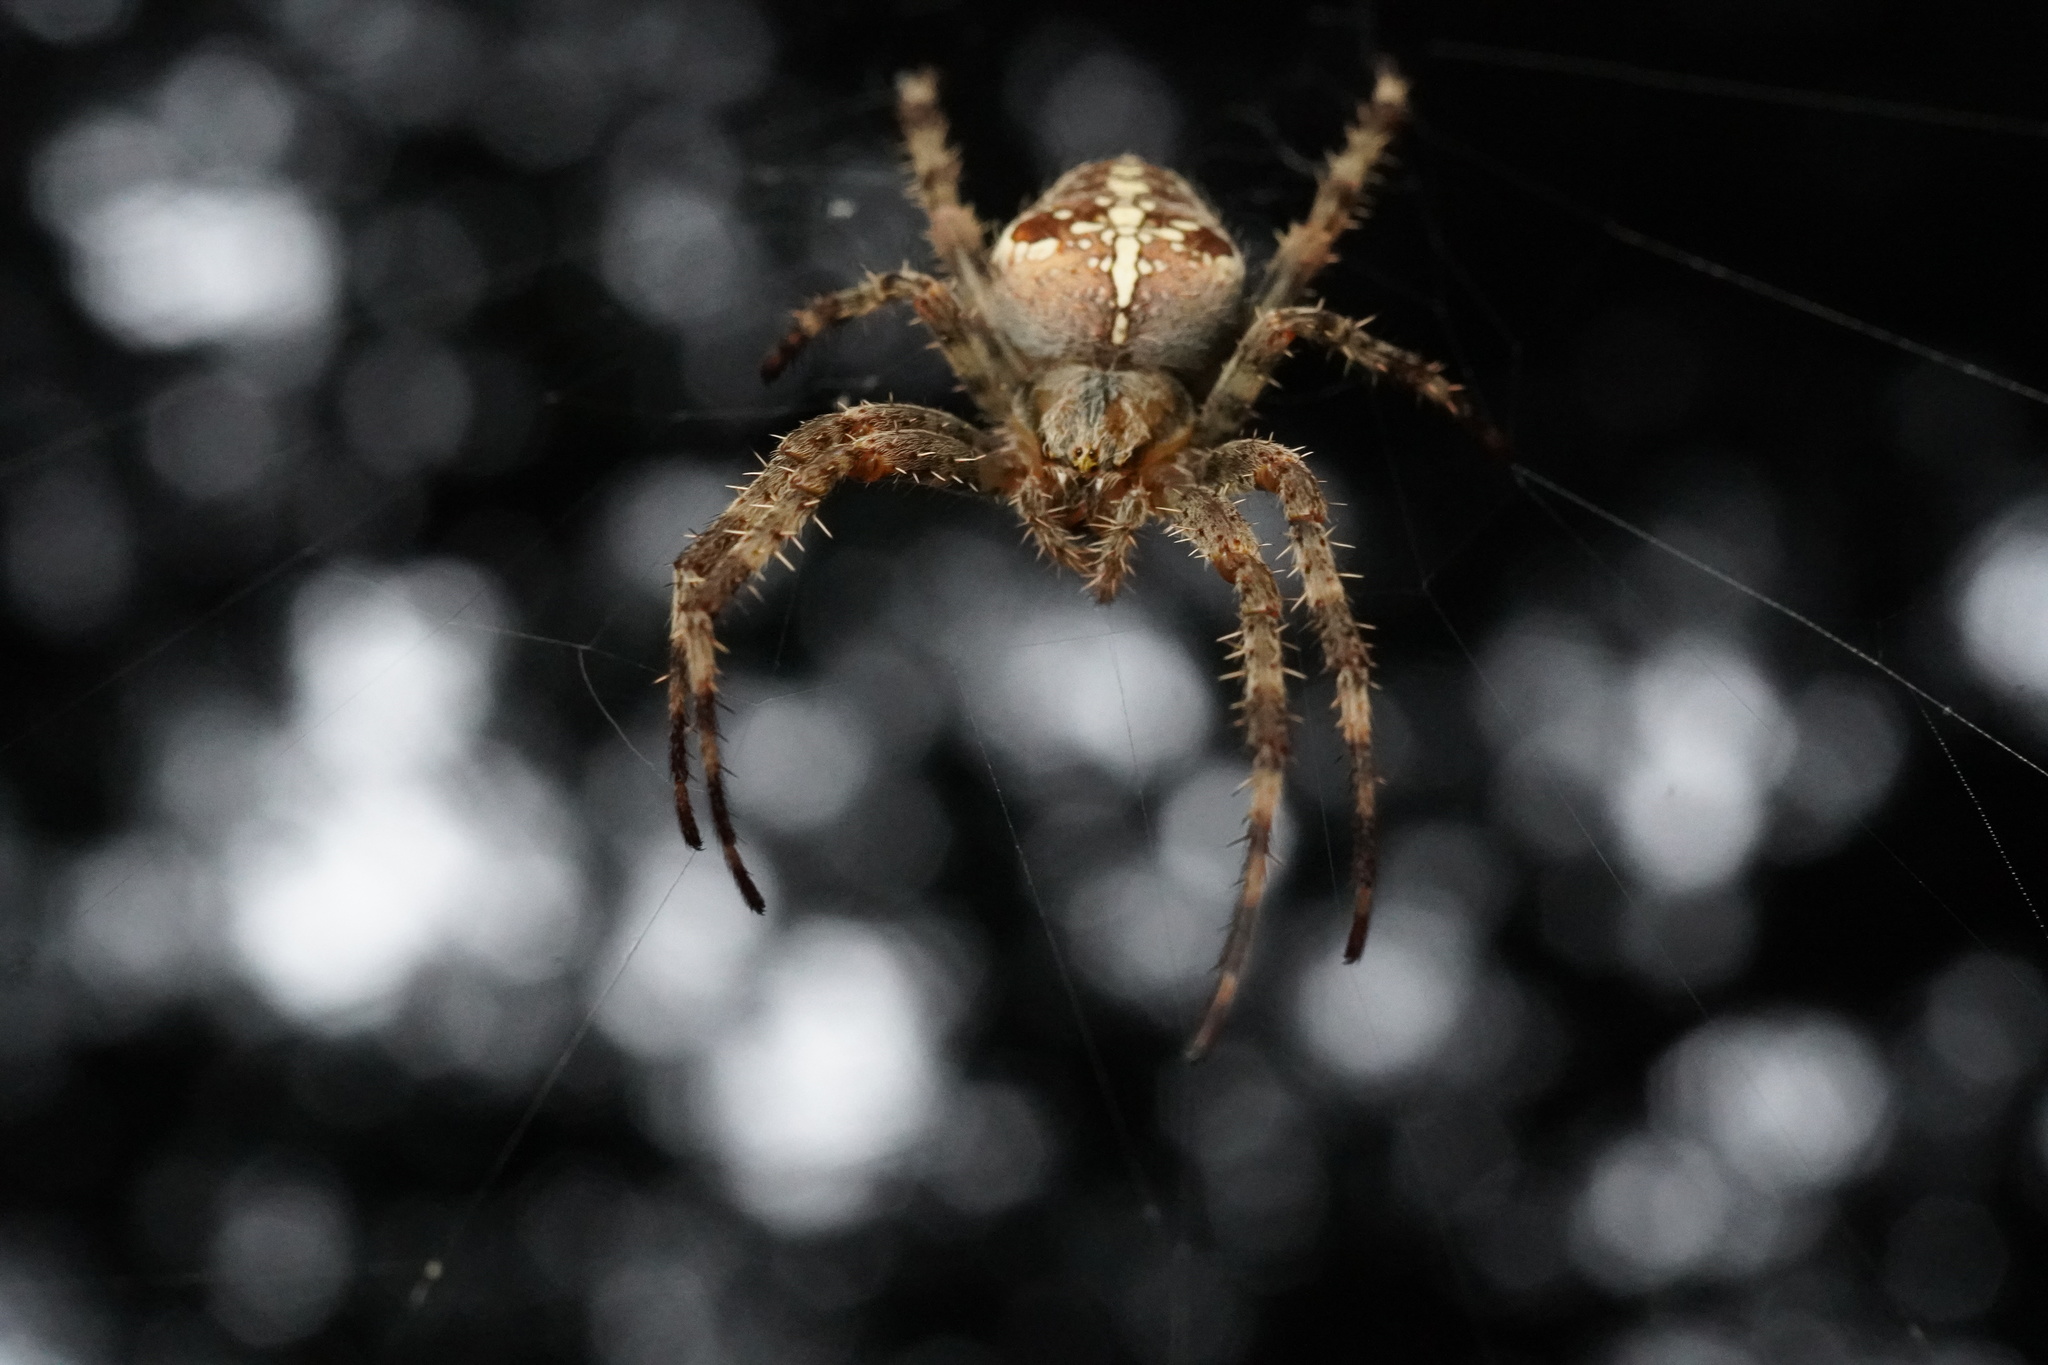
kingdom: Animalia
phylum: Arthropoda
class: Arachnida
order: Araneae
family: Araneidae
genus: Araneus
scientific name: Araneus diadematus
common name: Cross orbweaver
